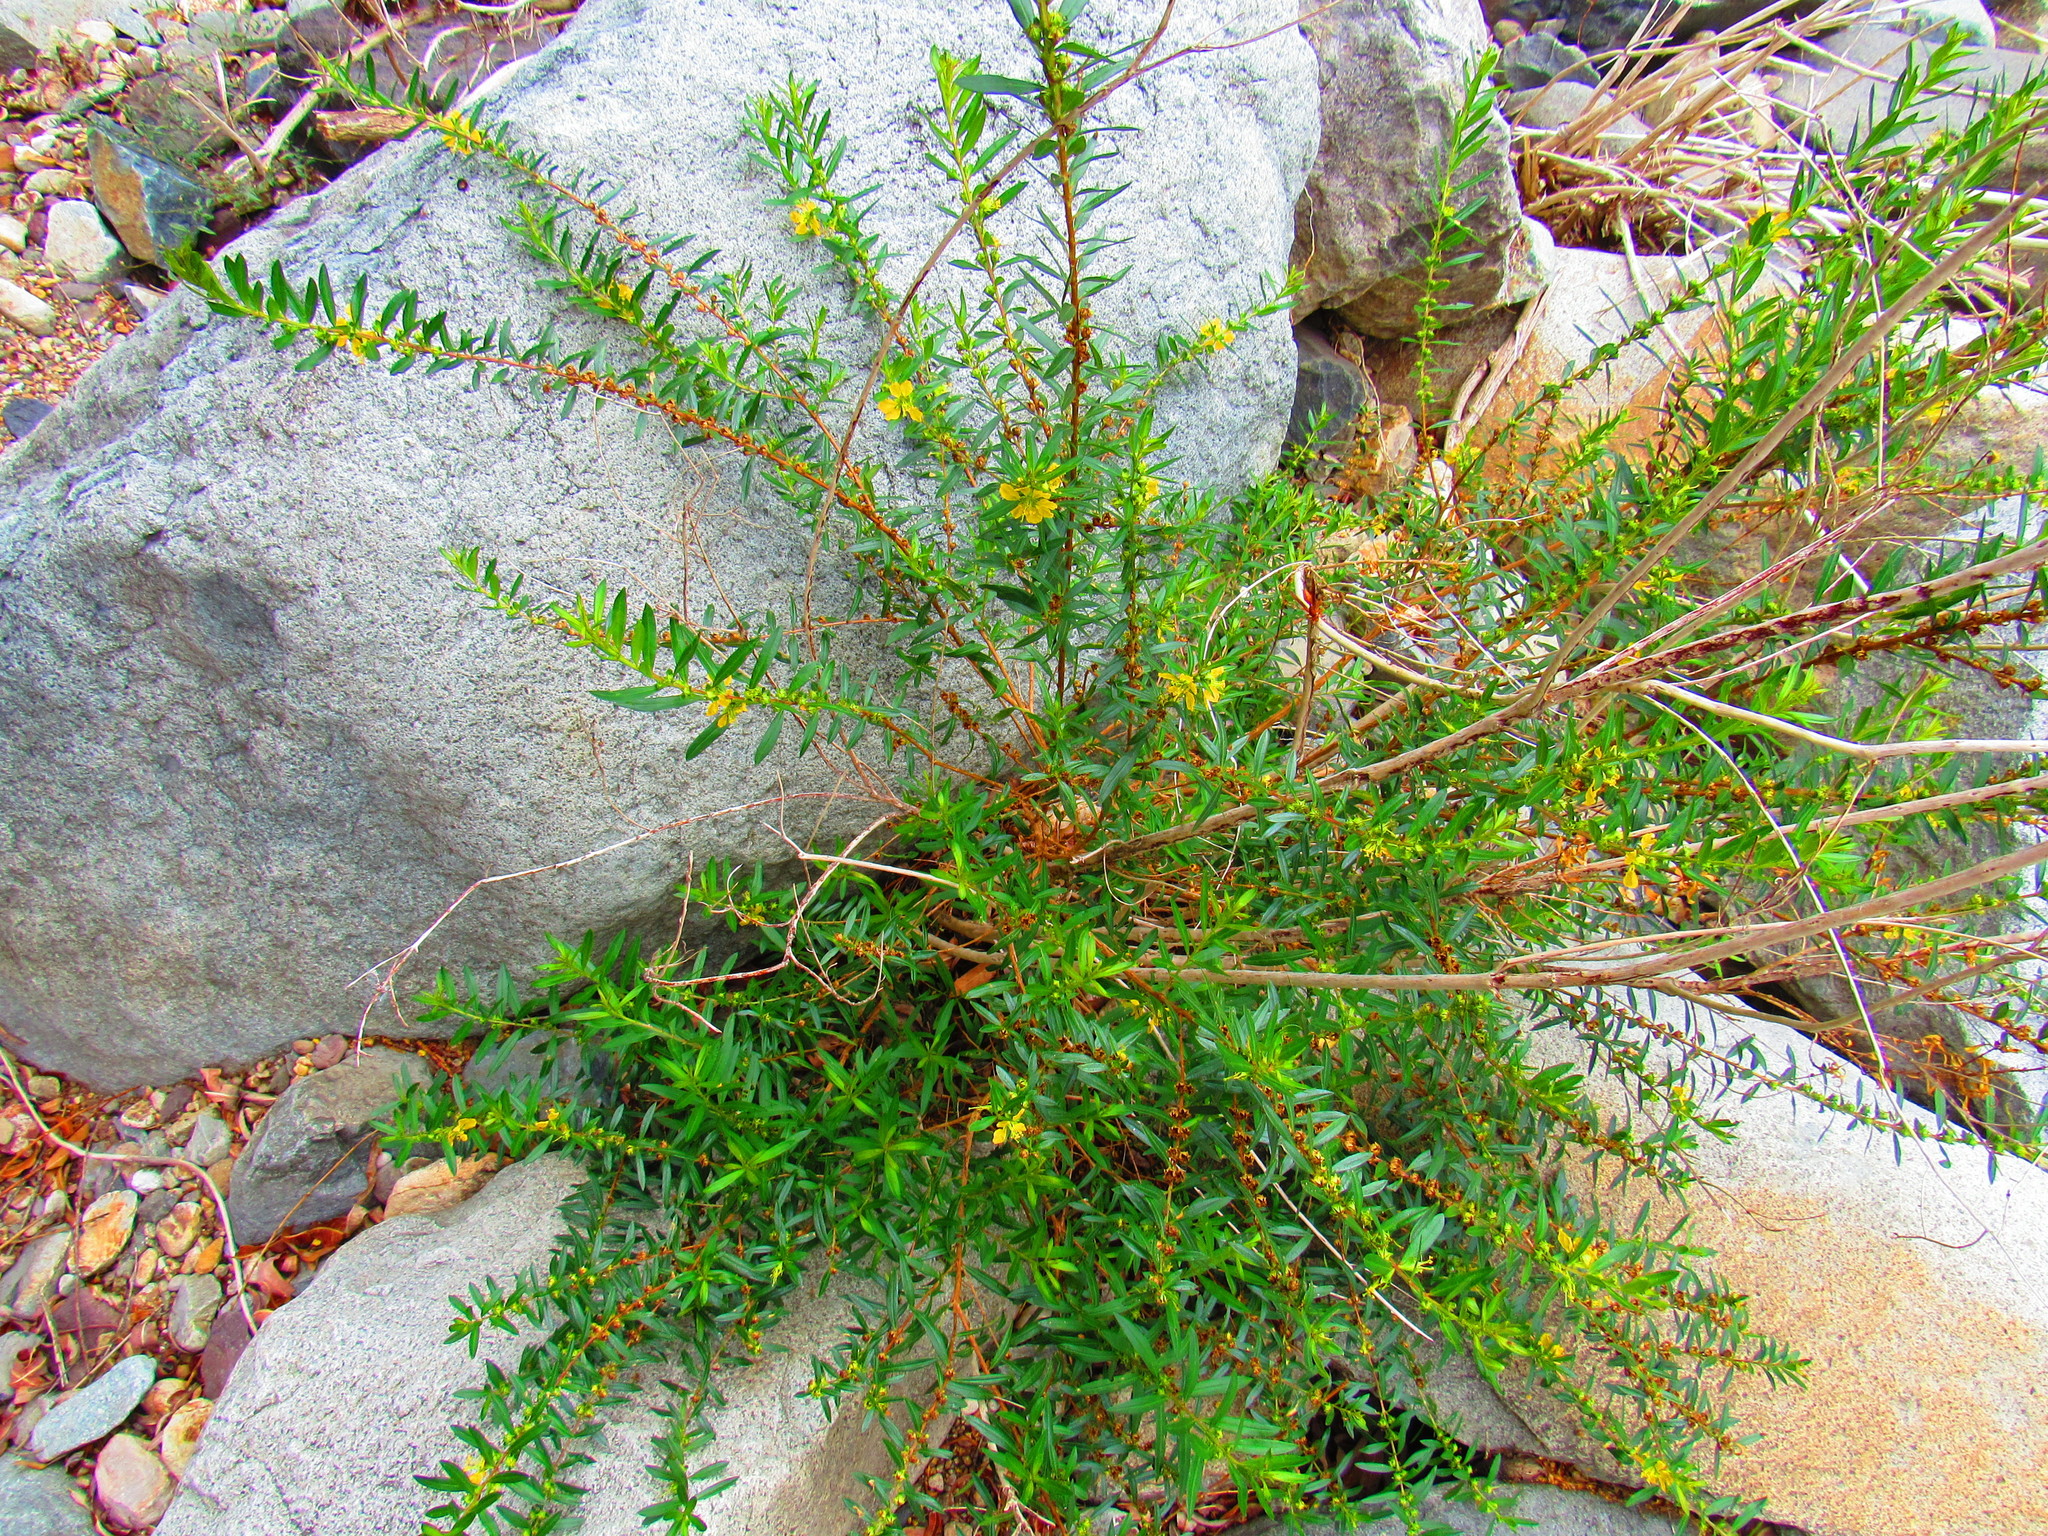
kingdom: Plantae
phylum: Tracheophyta
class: Magnoliopsida
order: Myrtales
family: Lythraceae
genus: Heimia
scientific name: Heimia salicifolia
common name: Willow-leaf heimia
